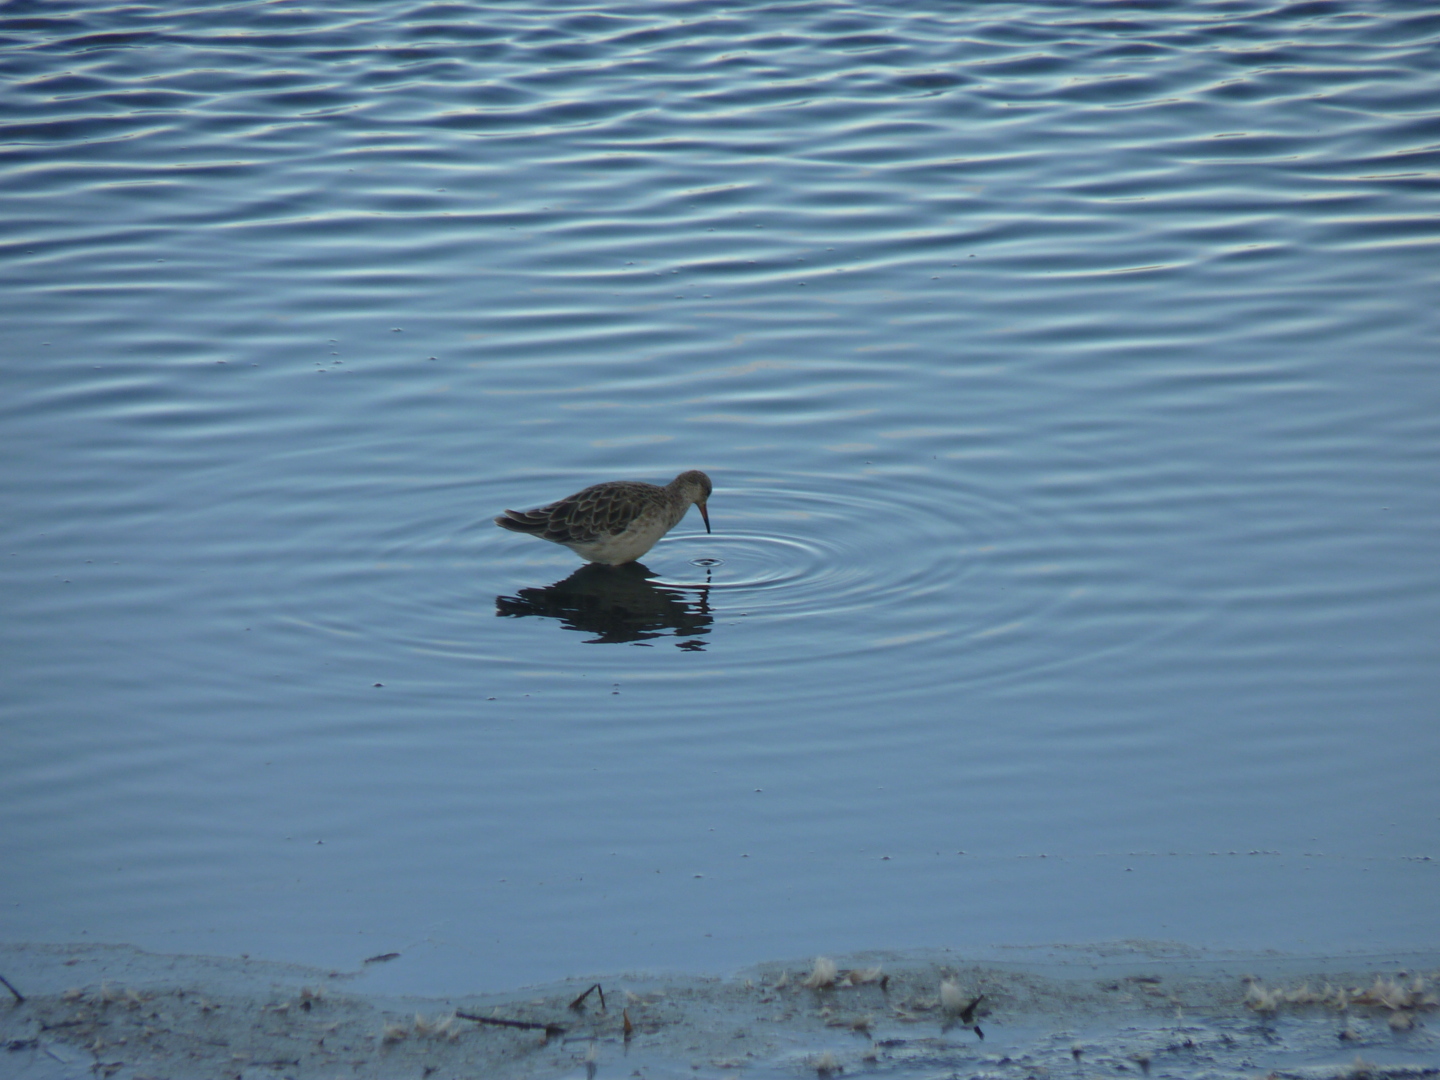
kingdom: Animalia
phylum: Chordata
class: Aves
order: Charadriiformes
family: Scolopacidae
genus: Calidris
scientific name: Calidris pugnax
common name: Ruff
